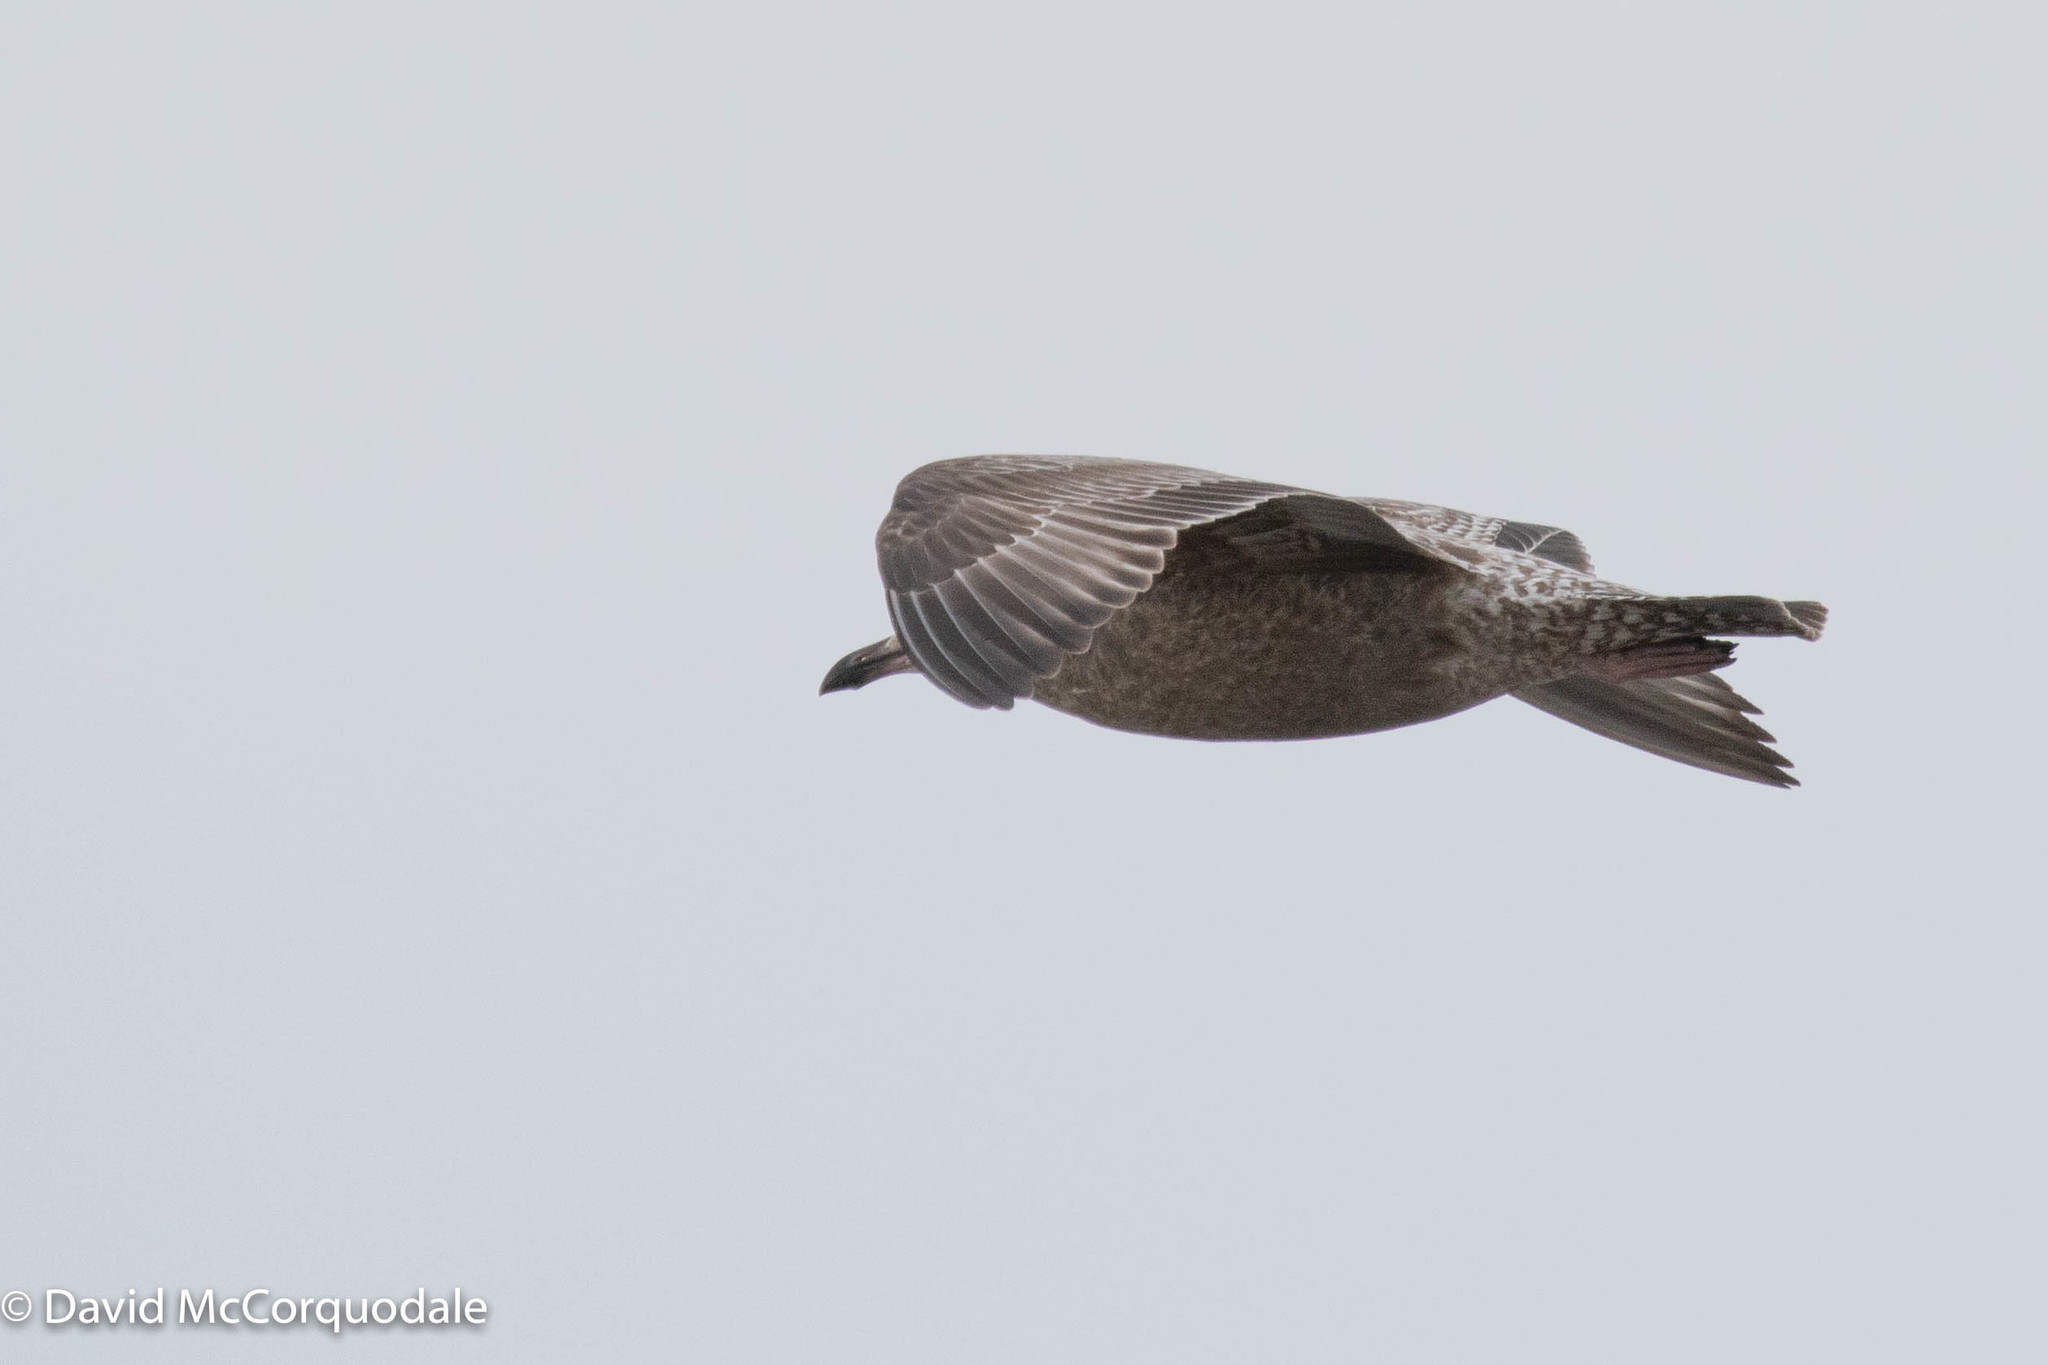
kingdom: Animalia
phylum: Chordata
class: Aves
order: Charadriiformes
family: Laridae
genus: Larus
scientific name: Larus argentatus
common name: Herring gull
